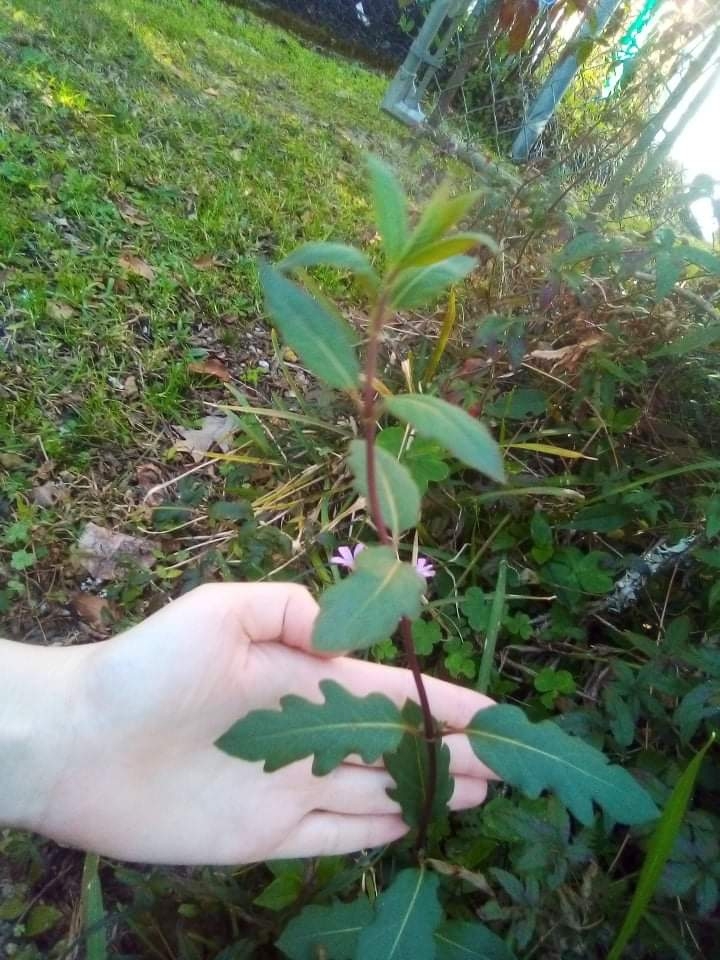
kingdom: Plantae
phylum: Tracheophyta
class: Magnoliopsida
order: Dipsacales
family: Caprifoliaceae
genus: Lonicera
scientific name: Lonicera japonica
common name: Japanese honeysuckle
